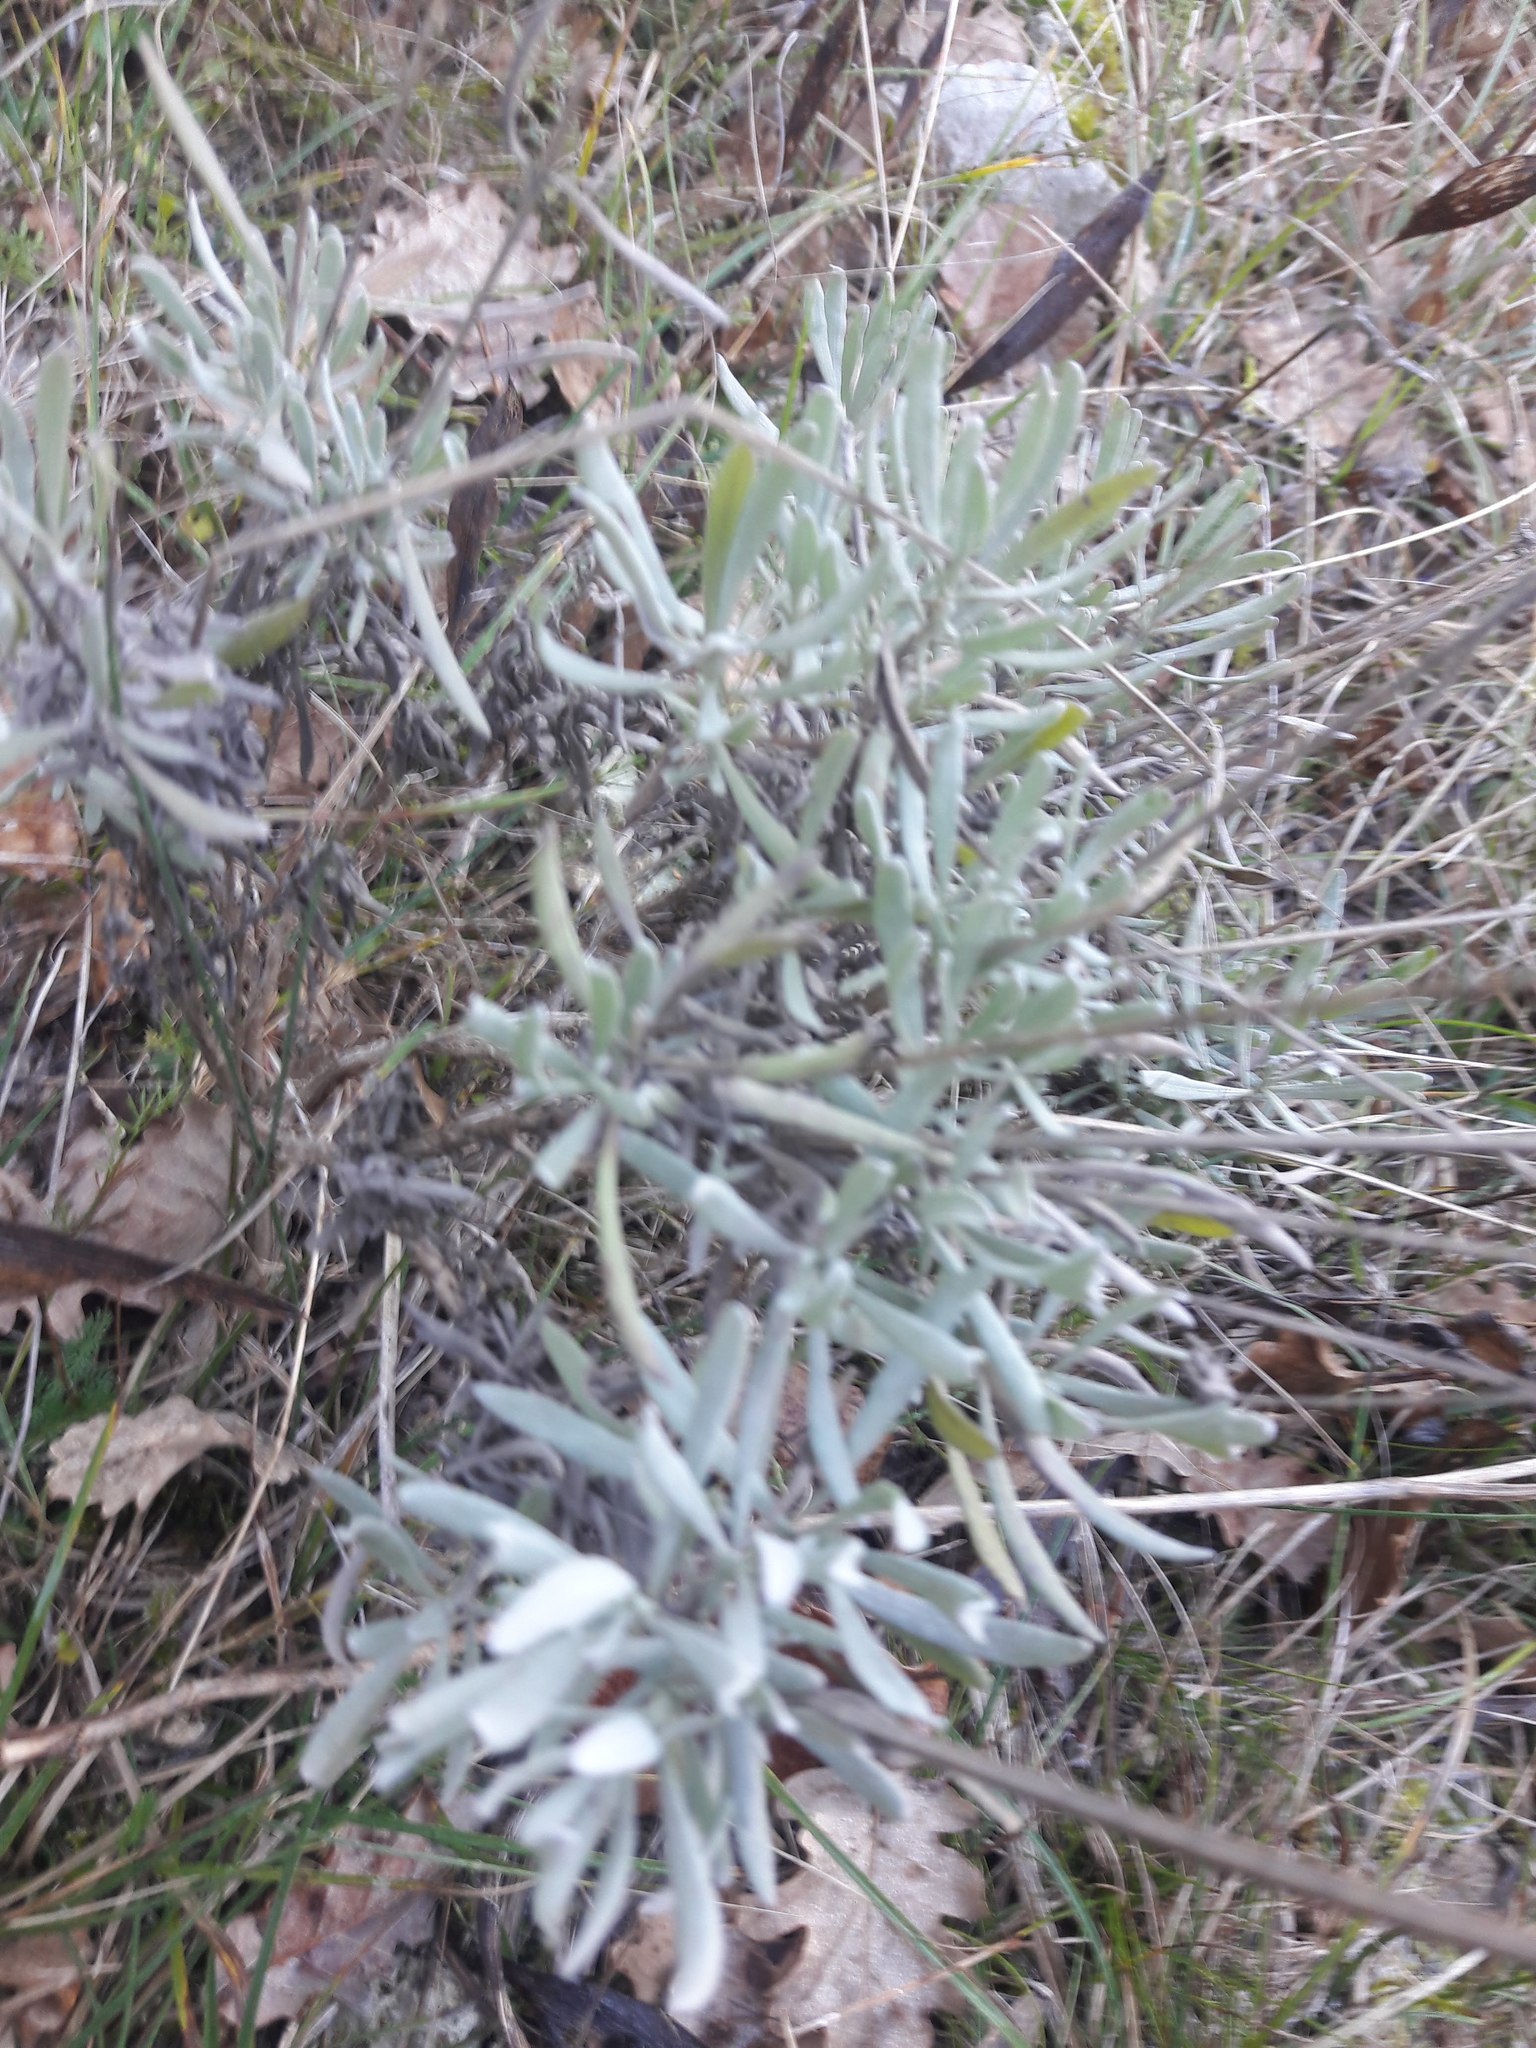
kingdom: Plantae
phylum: Tracheophyta
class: Magnoliopsida
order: Lamiales
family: Lamiaceae
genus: Lavandula
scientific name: Lavandula latifolia
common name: Spike lavendar
